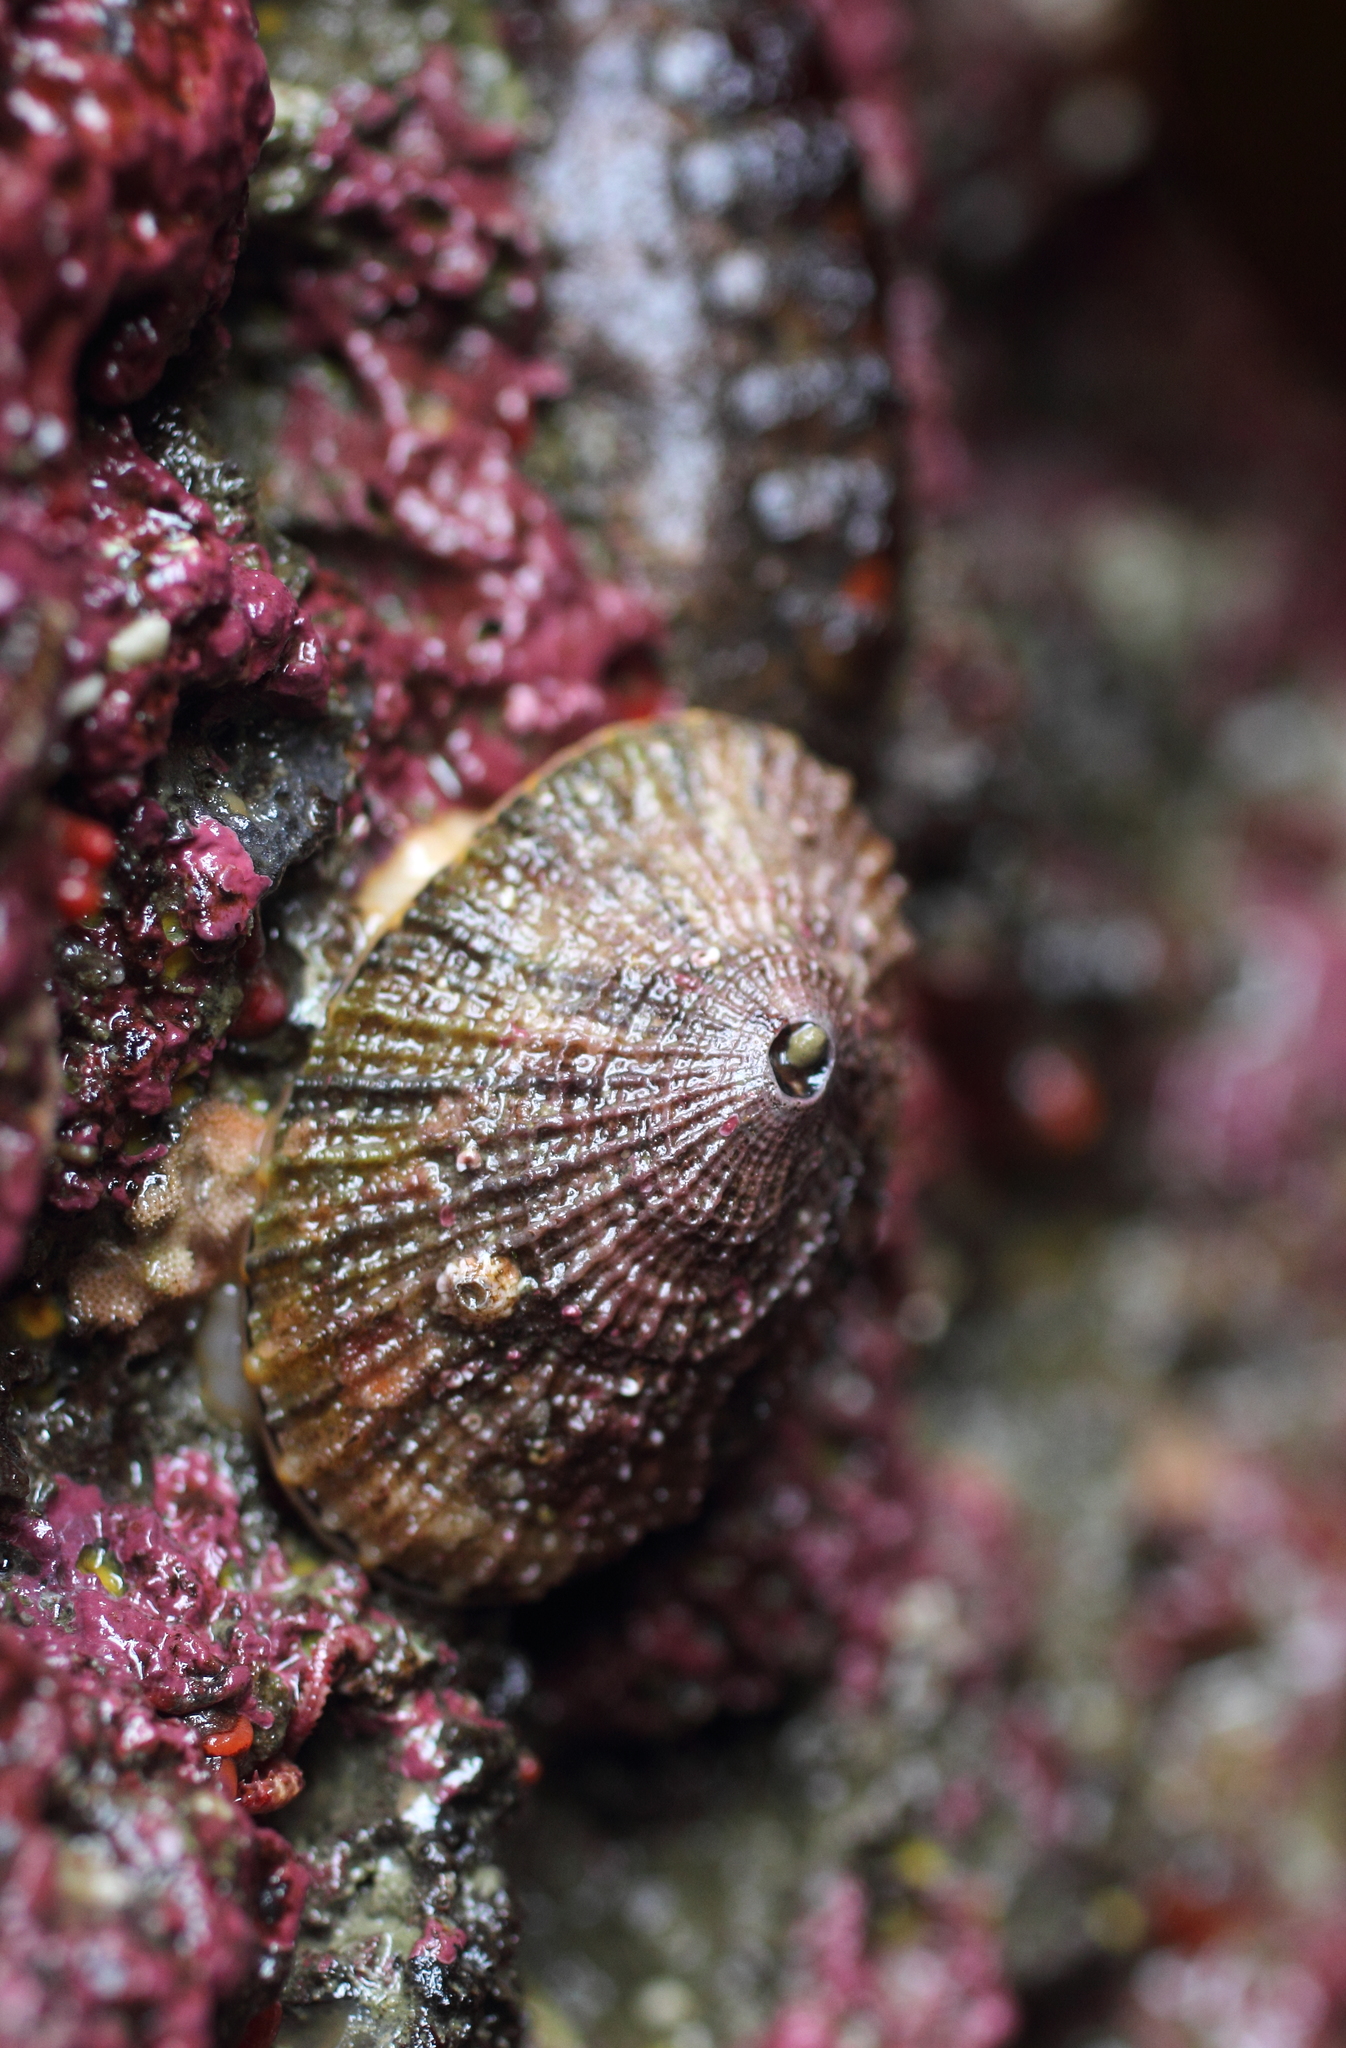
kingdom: Animalia
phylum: Mollusca
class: Gastropoda
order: Lepetellida
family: Fissurellidae
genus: Diodora
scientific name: Diodora aspera
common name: Rough keyhole limpet
